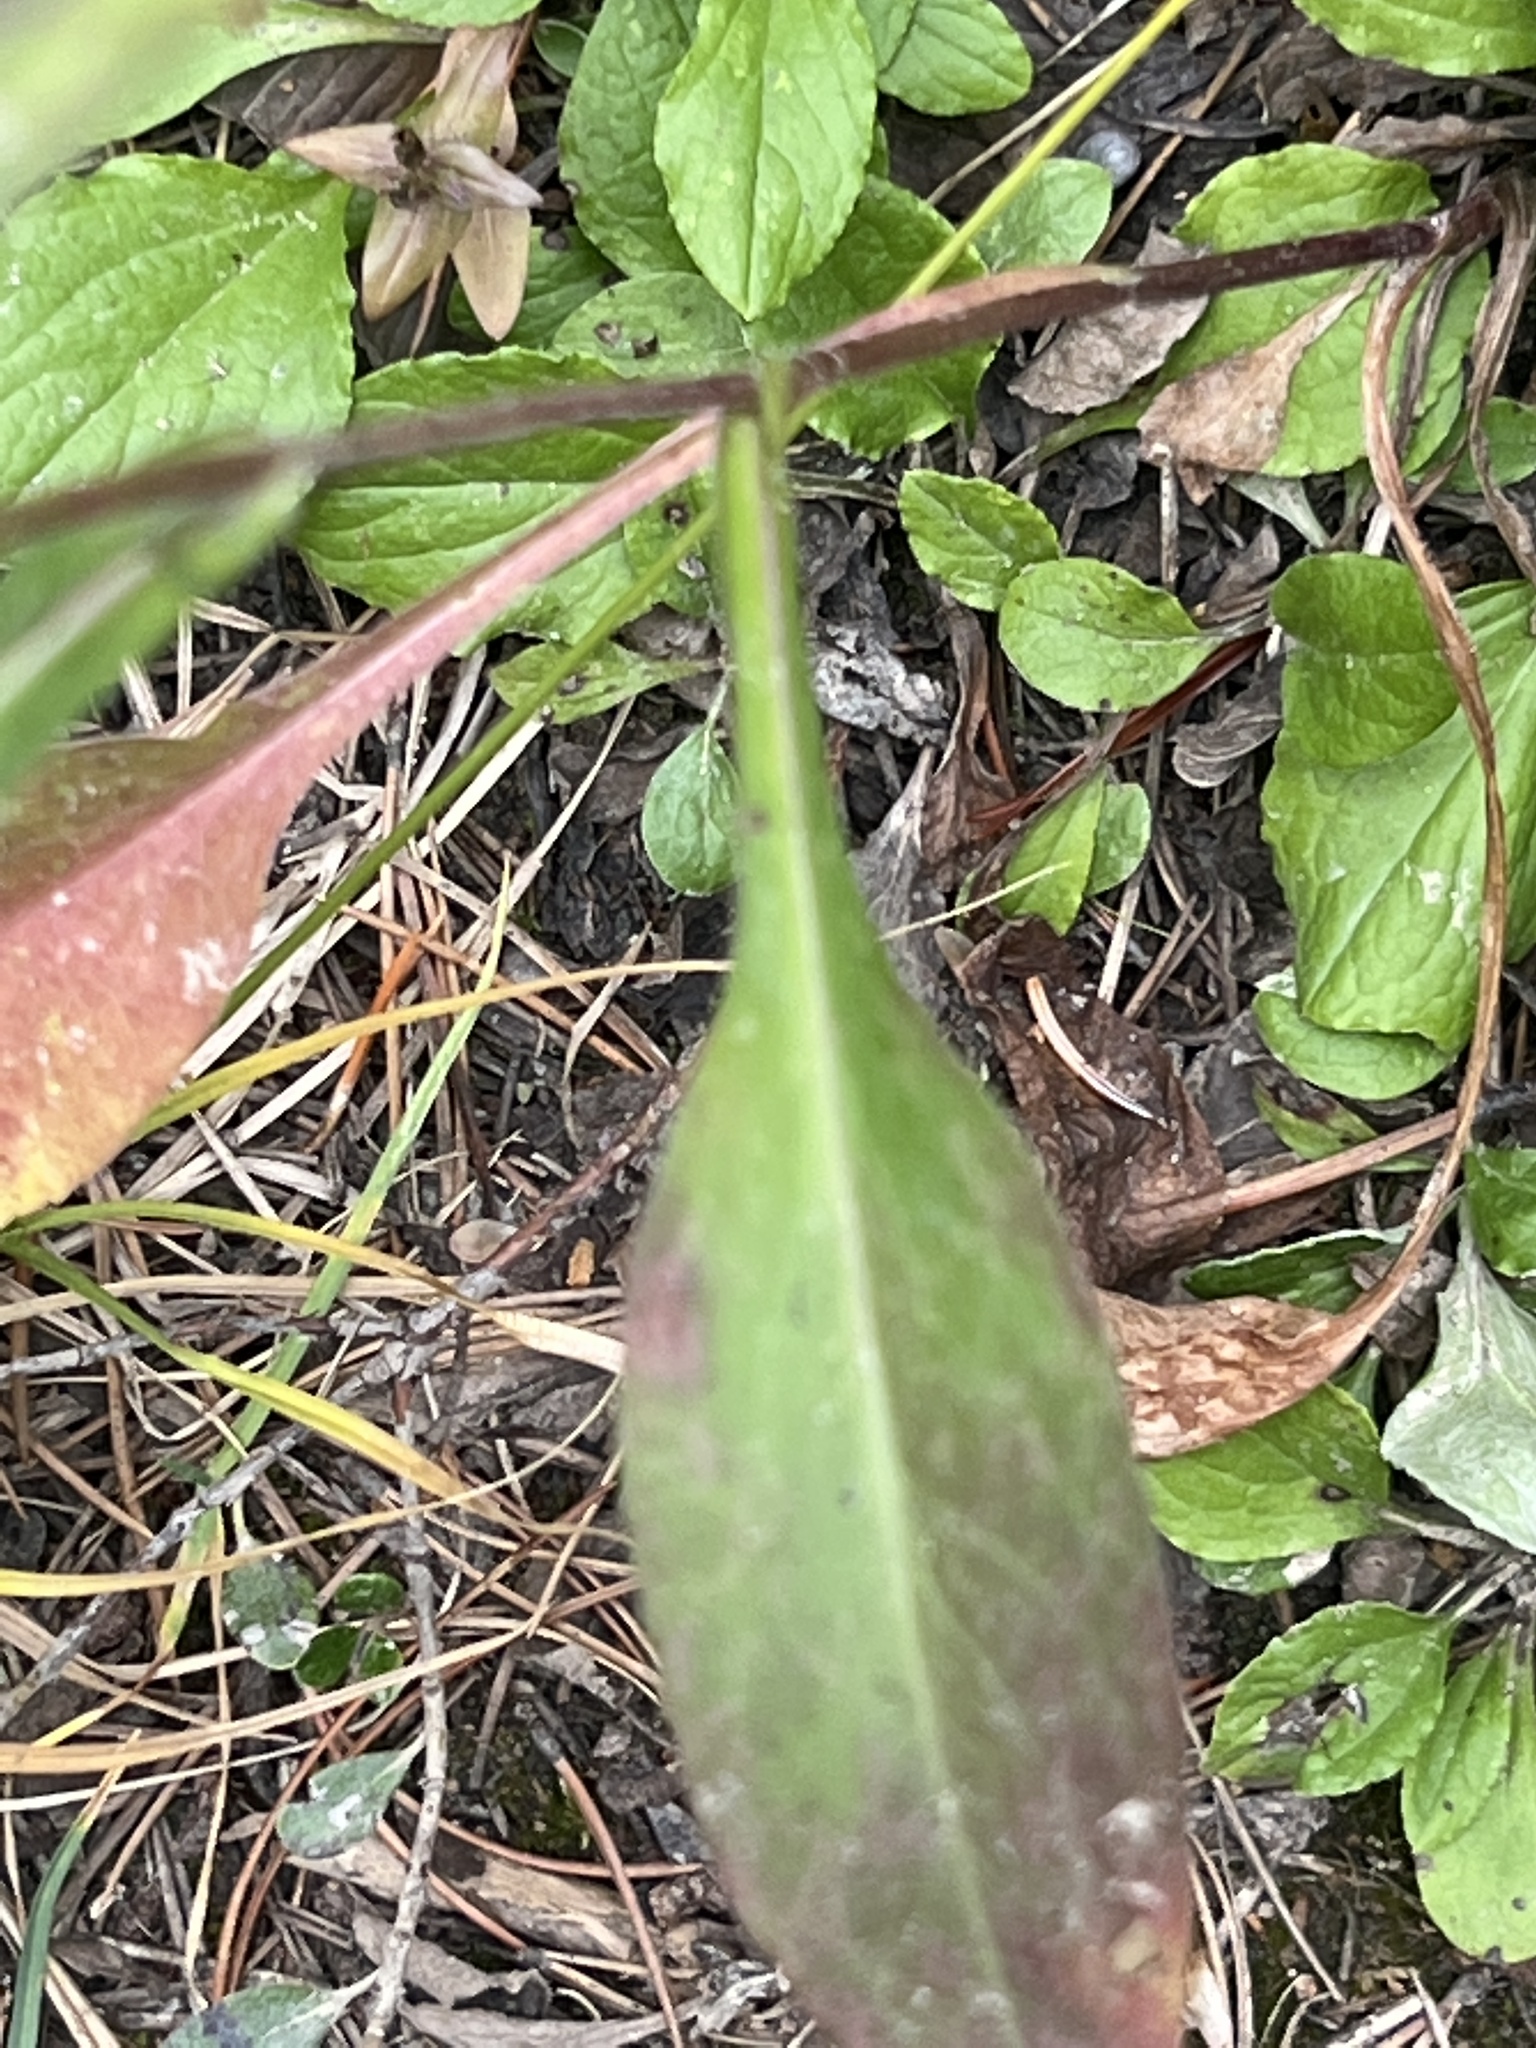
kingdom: Plantae
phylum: Tracheophyta
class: Magnoliopsida
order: Asterales
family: Asteraceae
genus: Symphyotrichum
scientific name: Symphyotrichum ciliolatum
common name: Fringed blue aster
